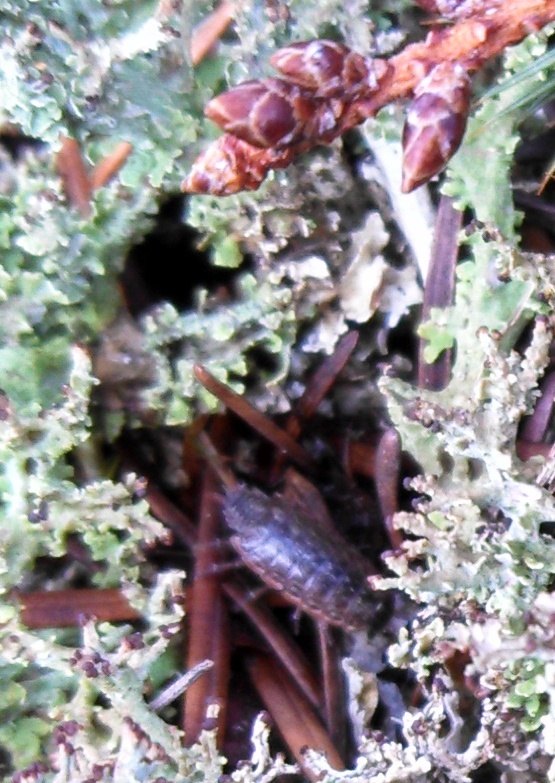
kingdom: Animalia
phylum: Arthropoda
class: Malacostraca
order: Isopoda
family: Philosciidae
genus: Philoscia
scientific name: Philoscia muscorum
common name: Common striped woodlouse
